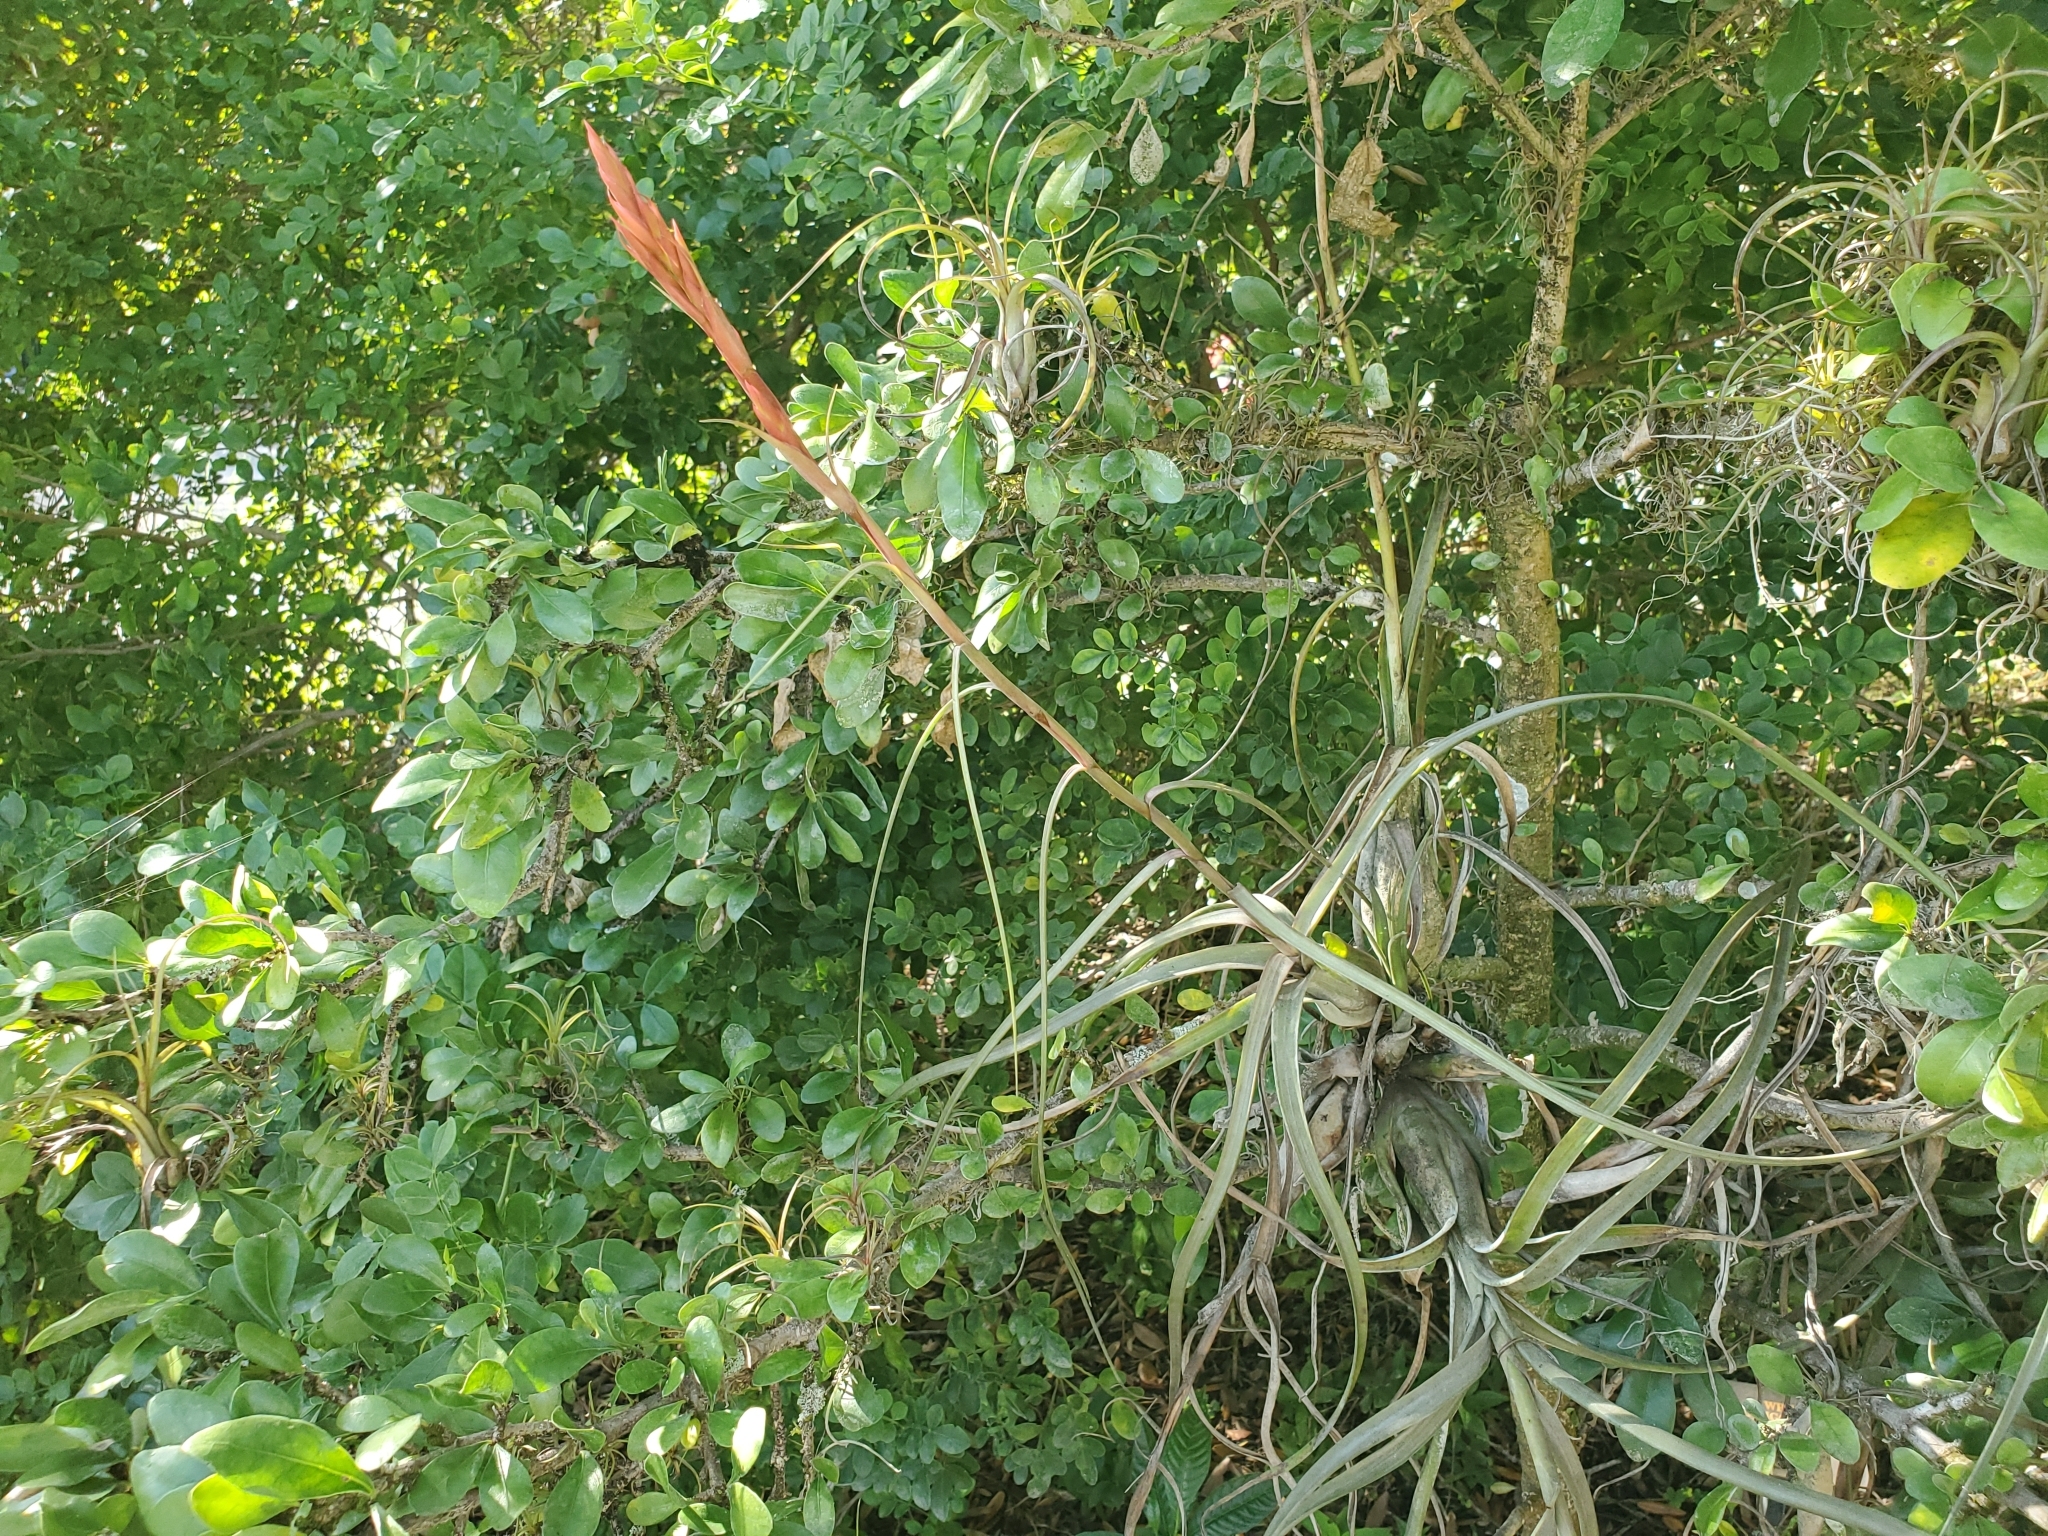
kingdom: Plantae
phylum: Tracheophyta
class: Liliopsida
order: Poales
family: Bromeliaceae
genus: Tillandsia
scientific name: Tillandsia balbisiana
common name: Northern needleleaf
